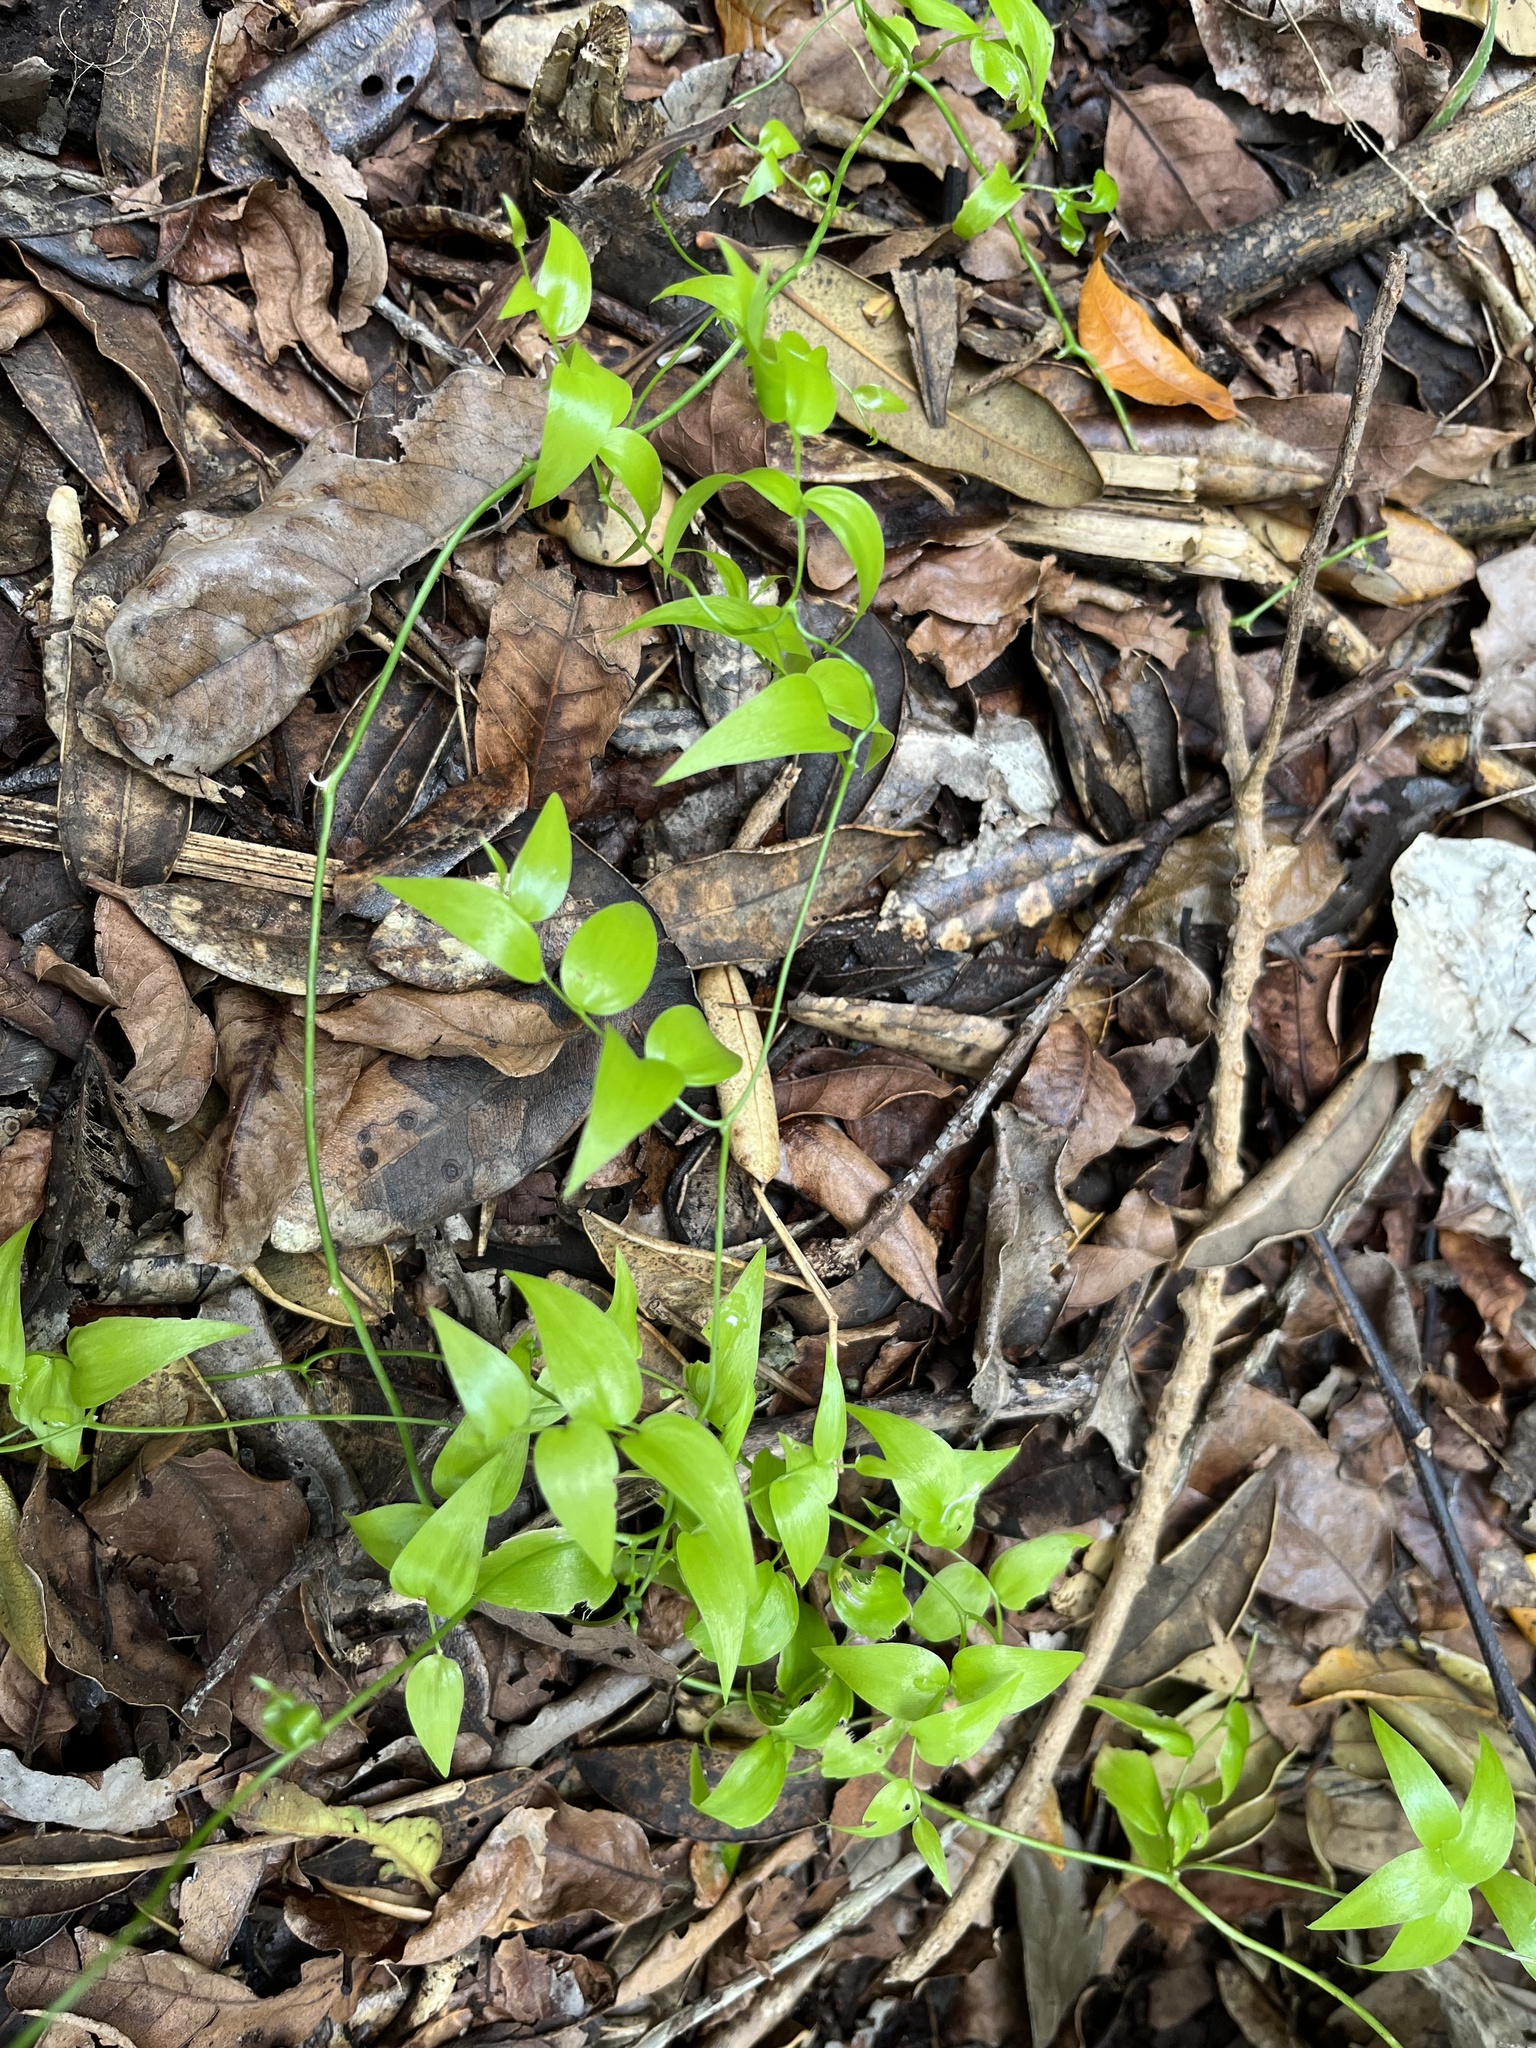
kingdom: Plantae
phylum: Tracheophyta
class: Liliopsida
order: Asparagales
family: Asparagaceae
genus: Asparagus
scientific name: Asparagus asparagoides
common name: African asparagus fern
